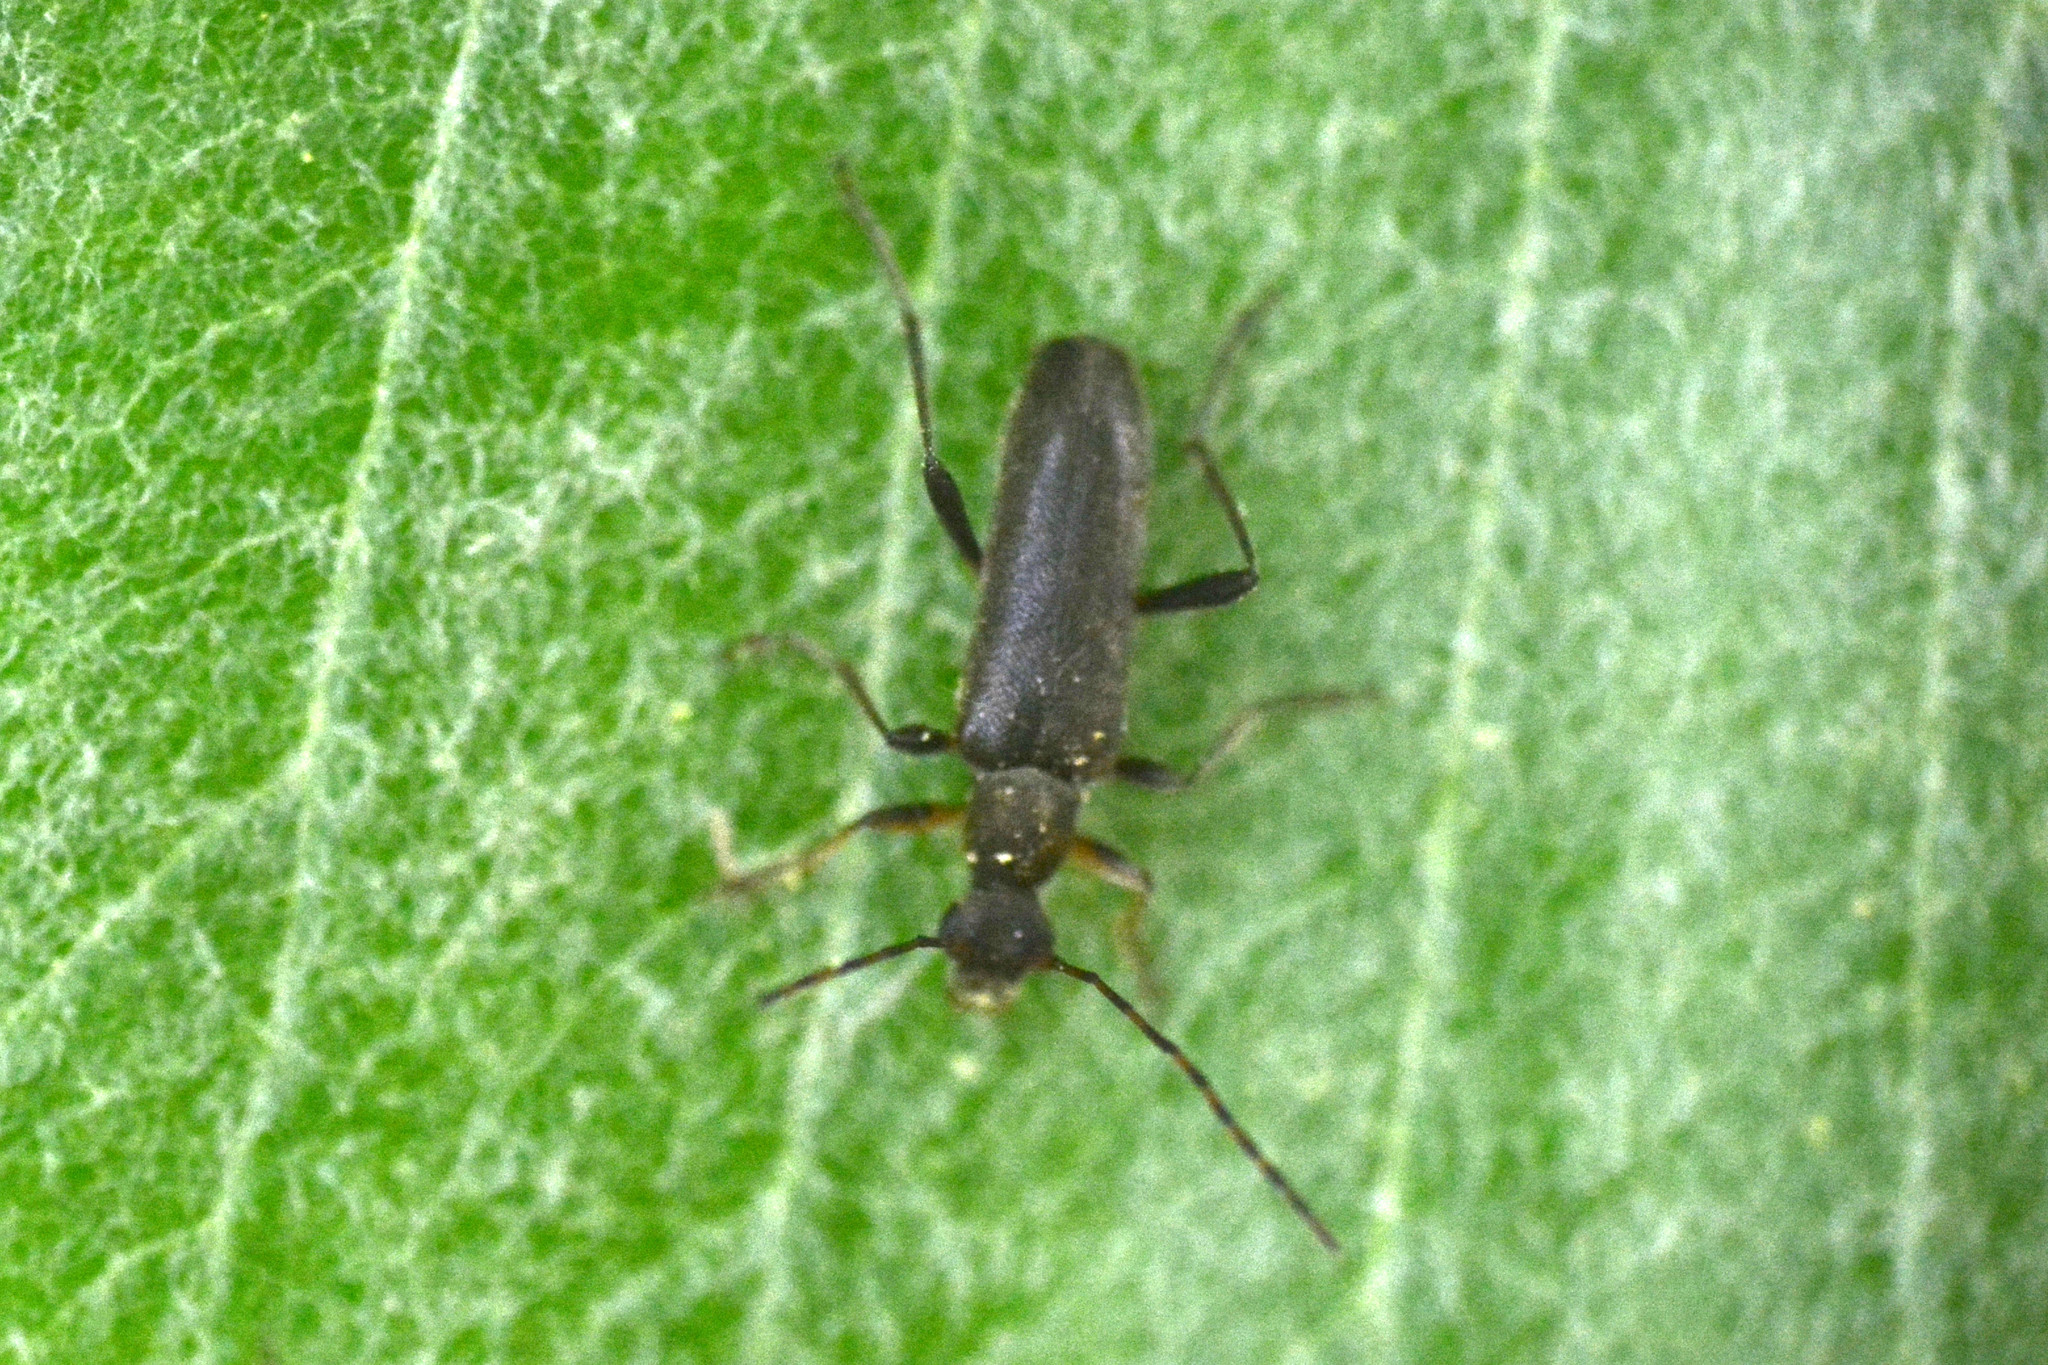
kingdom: Animalia
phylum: Arthropoda
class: Insecta
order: Coleoptera
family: Cerambycidae
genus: Grammoptera
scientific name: Grammoptera ruficornis
